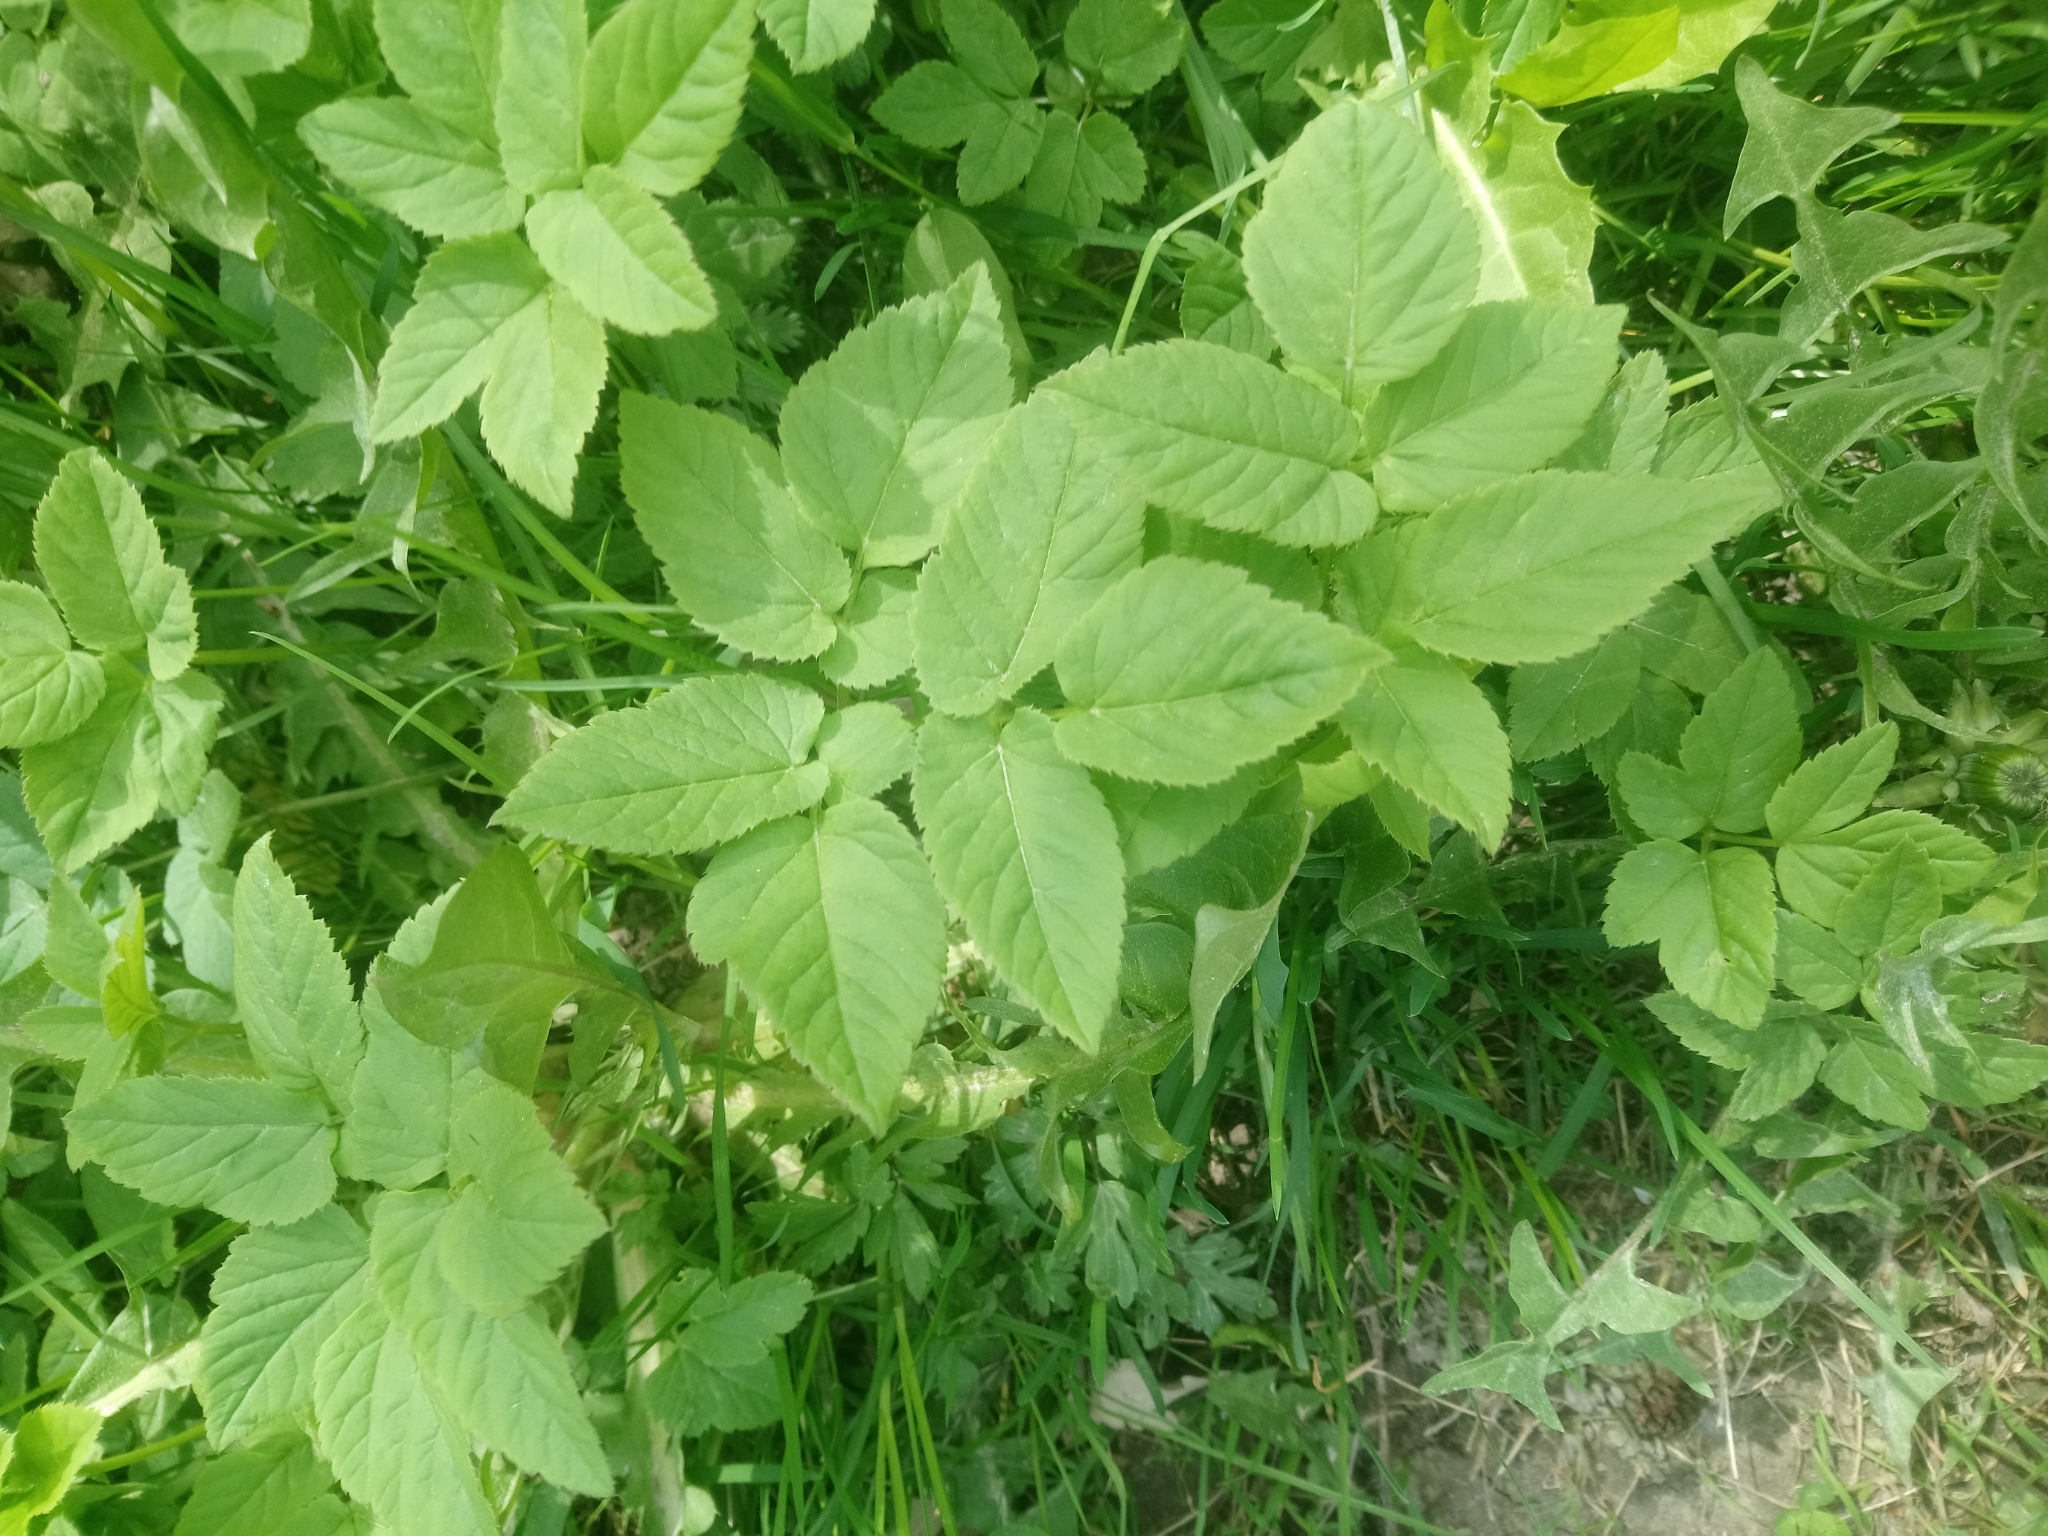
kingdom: Plantae
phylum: Tracheophyta
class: Magnoliopsida
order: Apiales
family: Apiaceae
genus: Aegopodium
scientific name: Aegopodium podagraria
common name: Ground-elder
